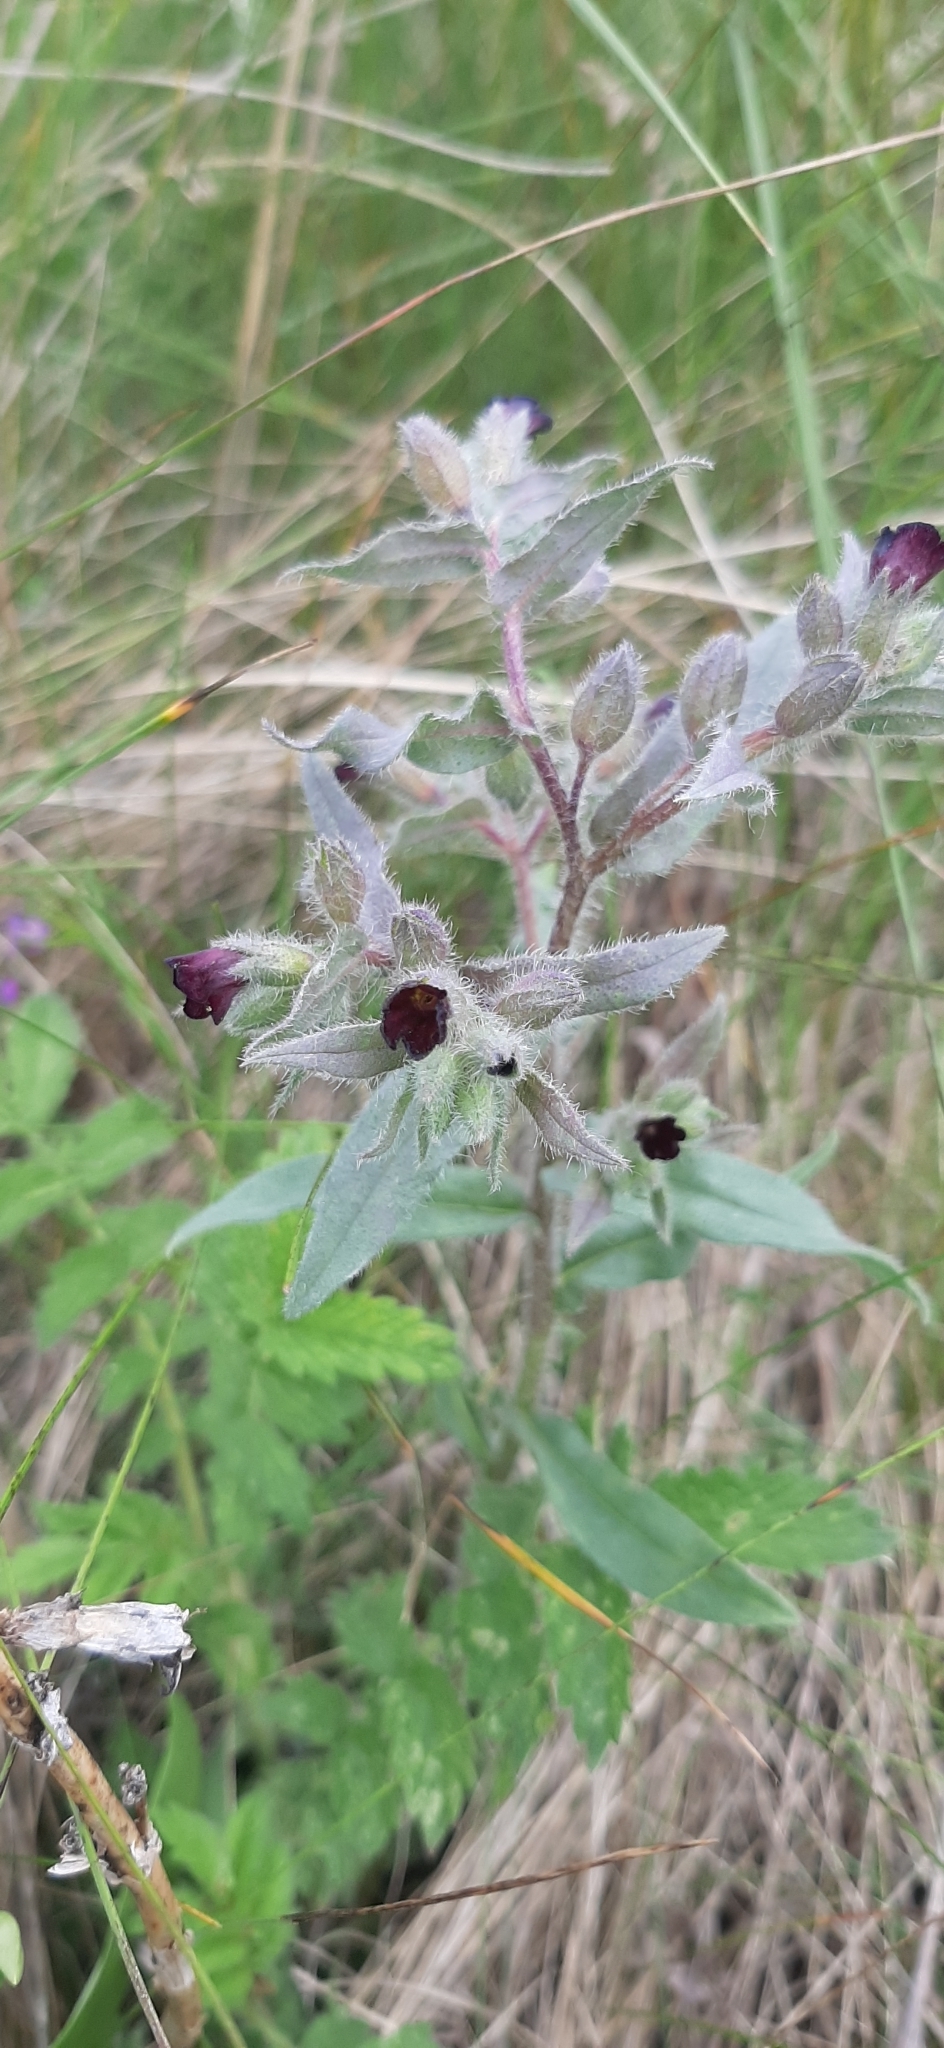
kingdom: Plantae
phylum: Tracheophyta
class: Magnoliopsida
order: Boraginales
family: Boraginaceae
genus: Nonea
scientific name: Nonea pulla
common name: Brown nonea
